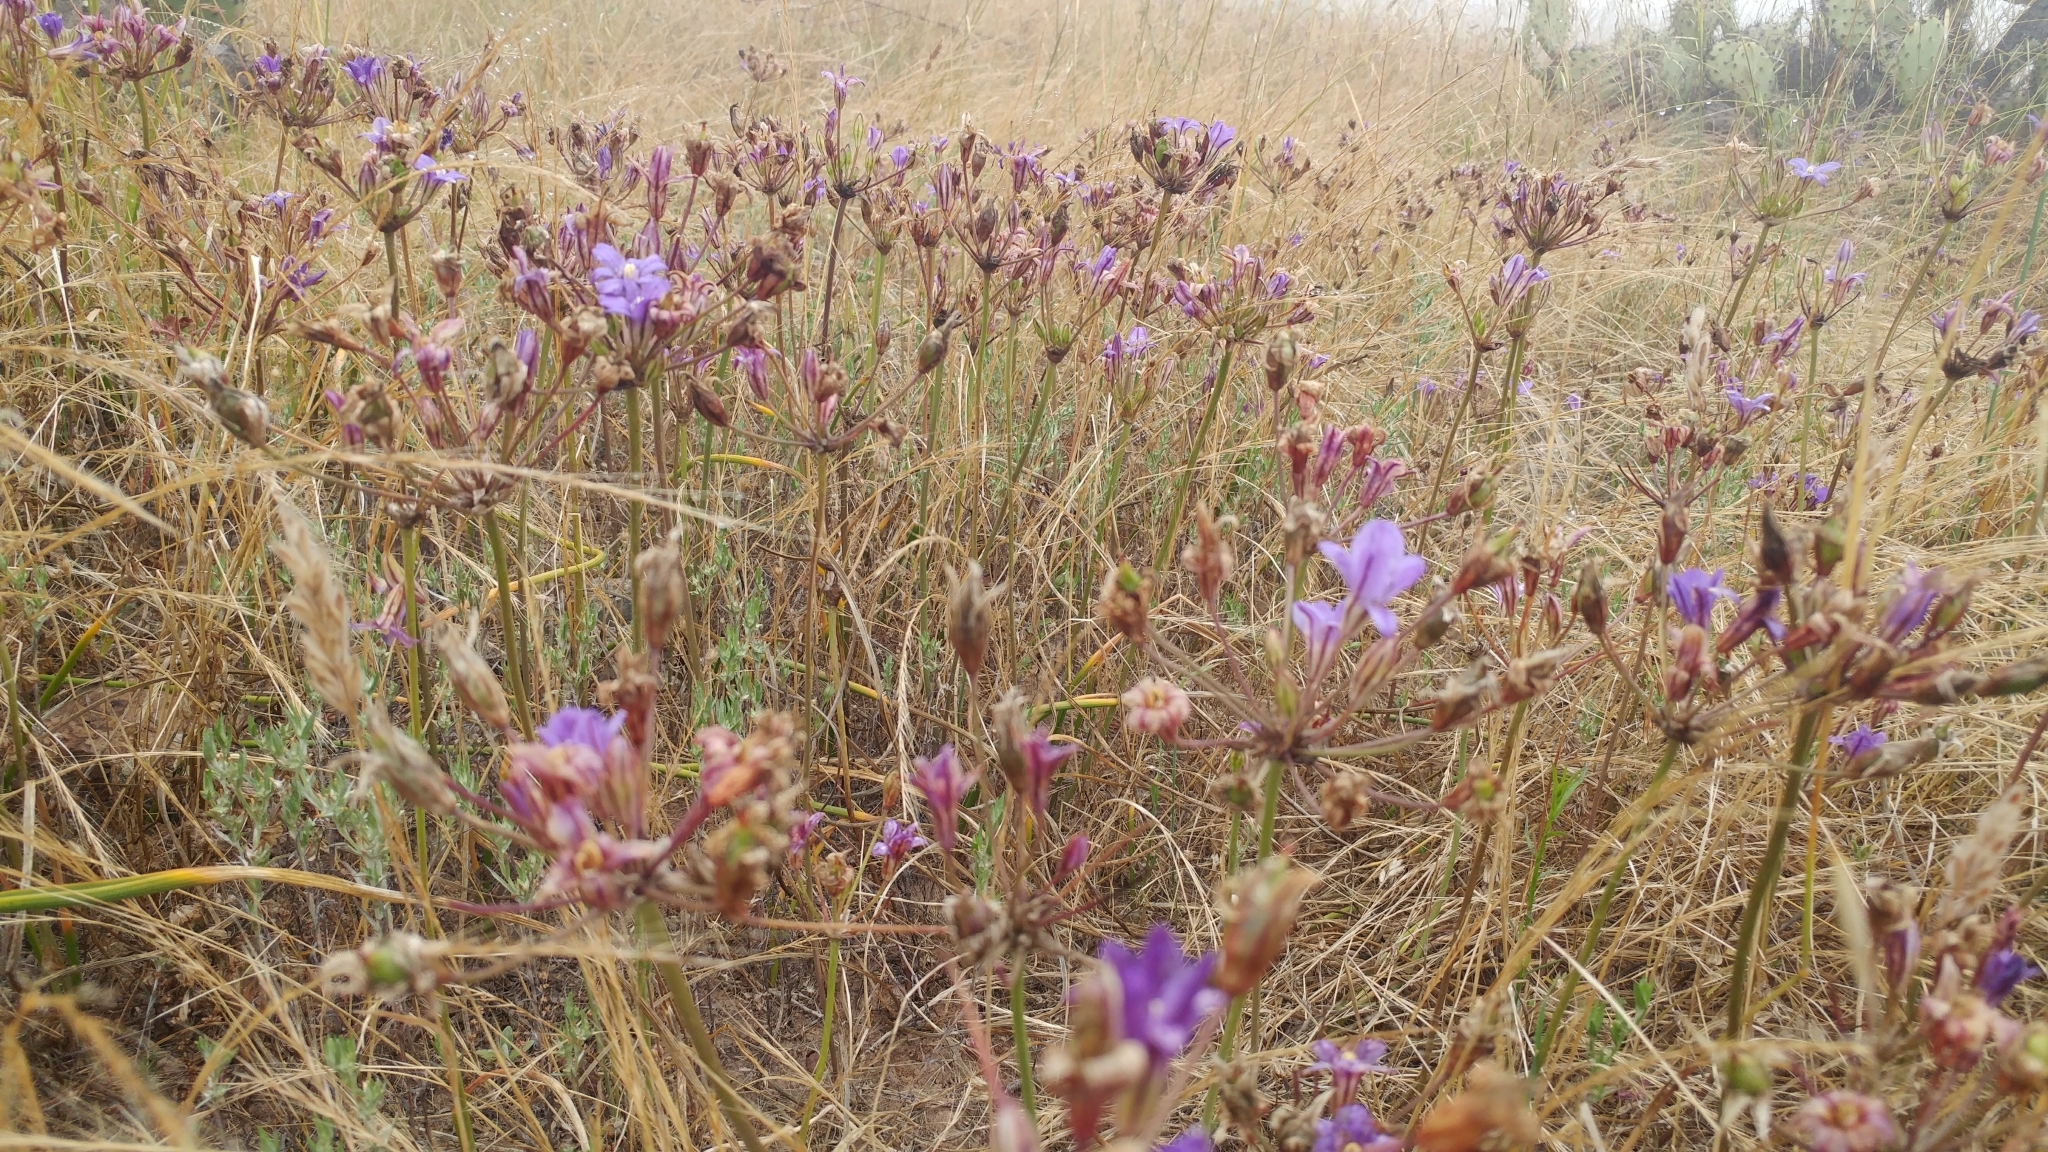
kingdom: Plantae
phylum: Tracheophyta
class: Liliopsida
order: Asparagales
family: Asparagaceae
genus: Brodiaea
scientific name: Brodiaea kinkiensis
